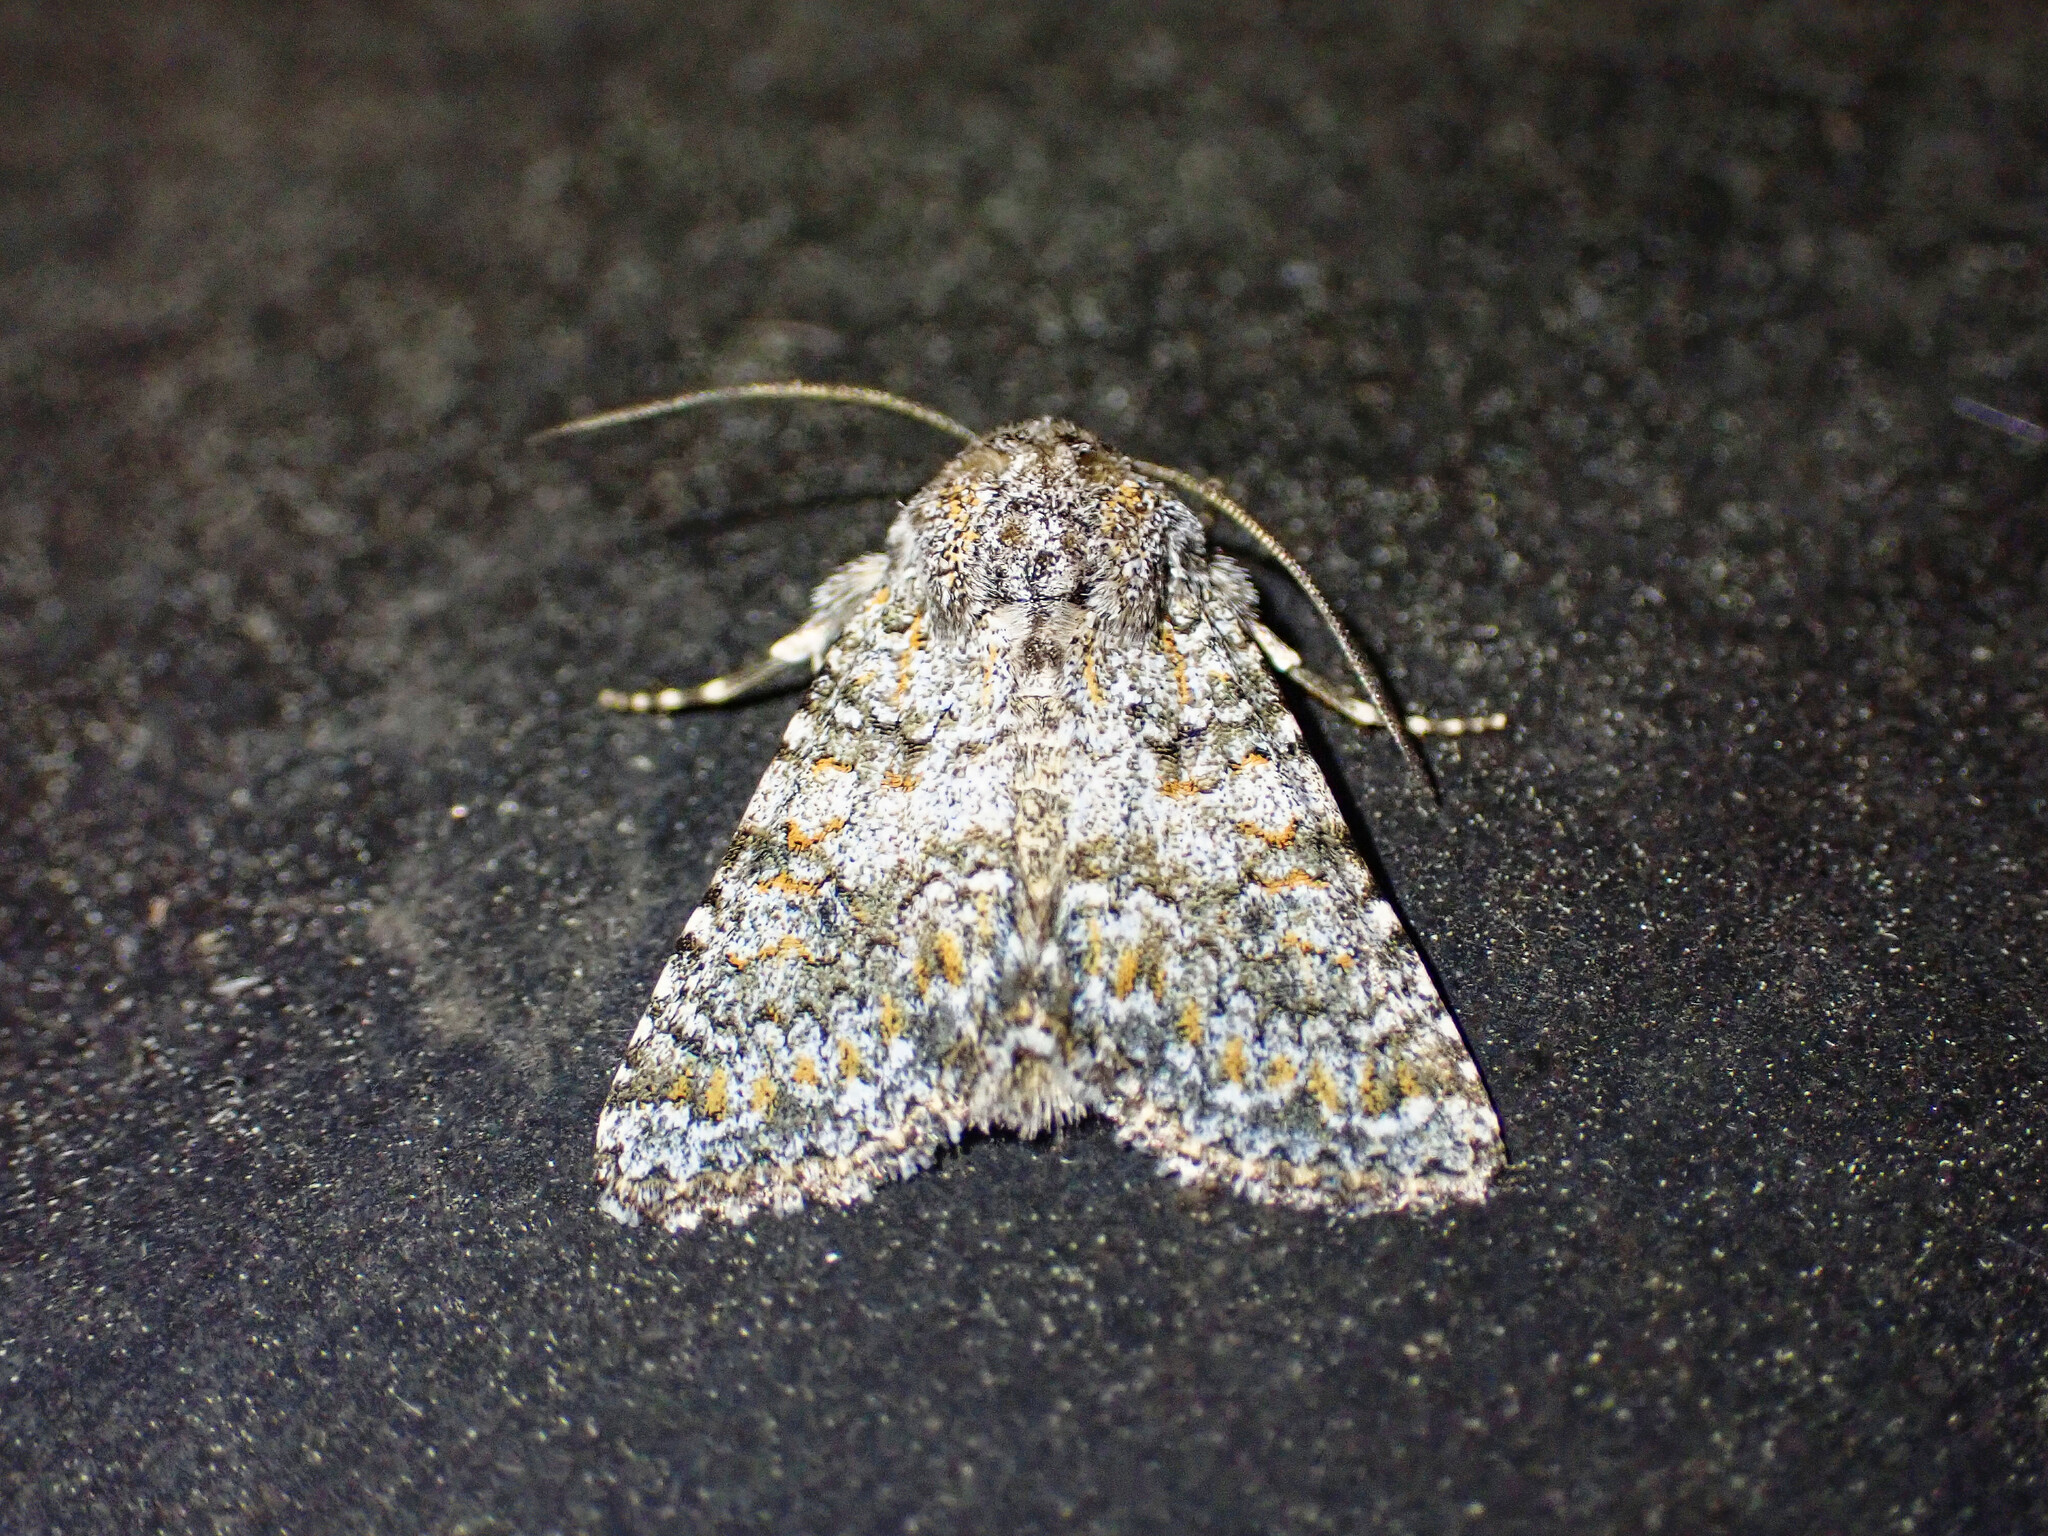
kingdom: Animalia
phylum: Arthropoda
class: Insecta
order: Lepidoptera
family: Noctuidae
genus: Hecatera
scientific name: Hecatera dysodea
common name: Small ranunculus
